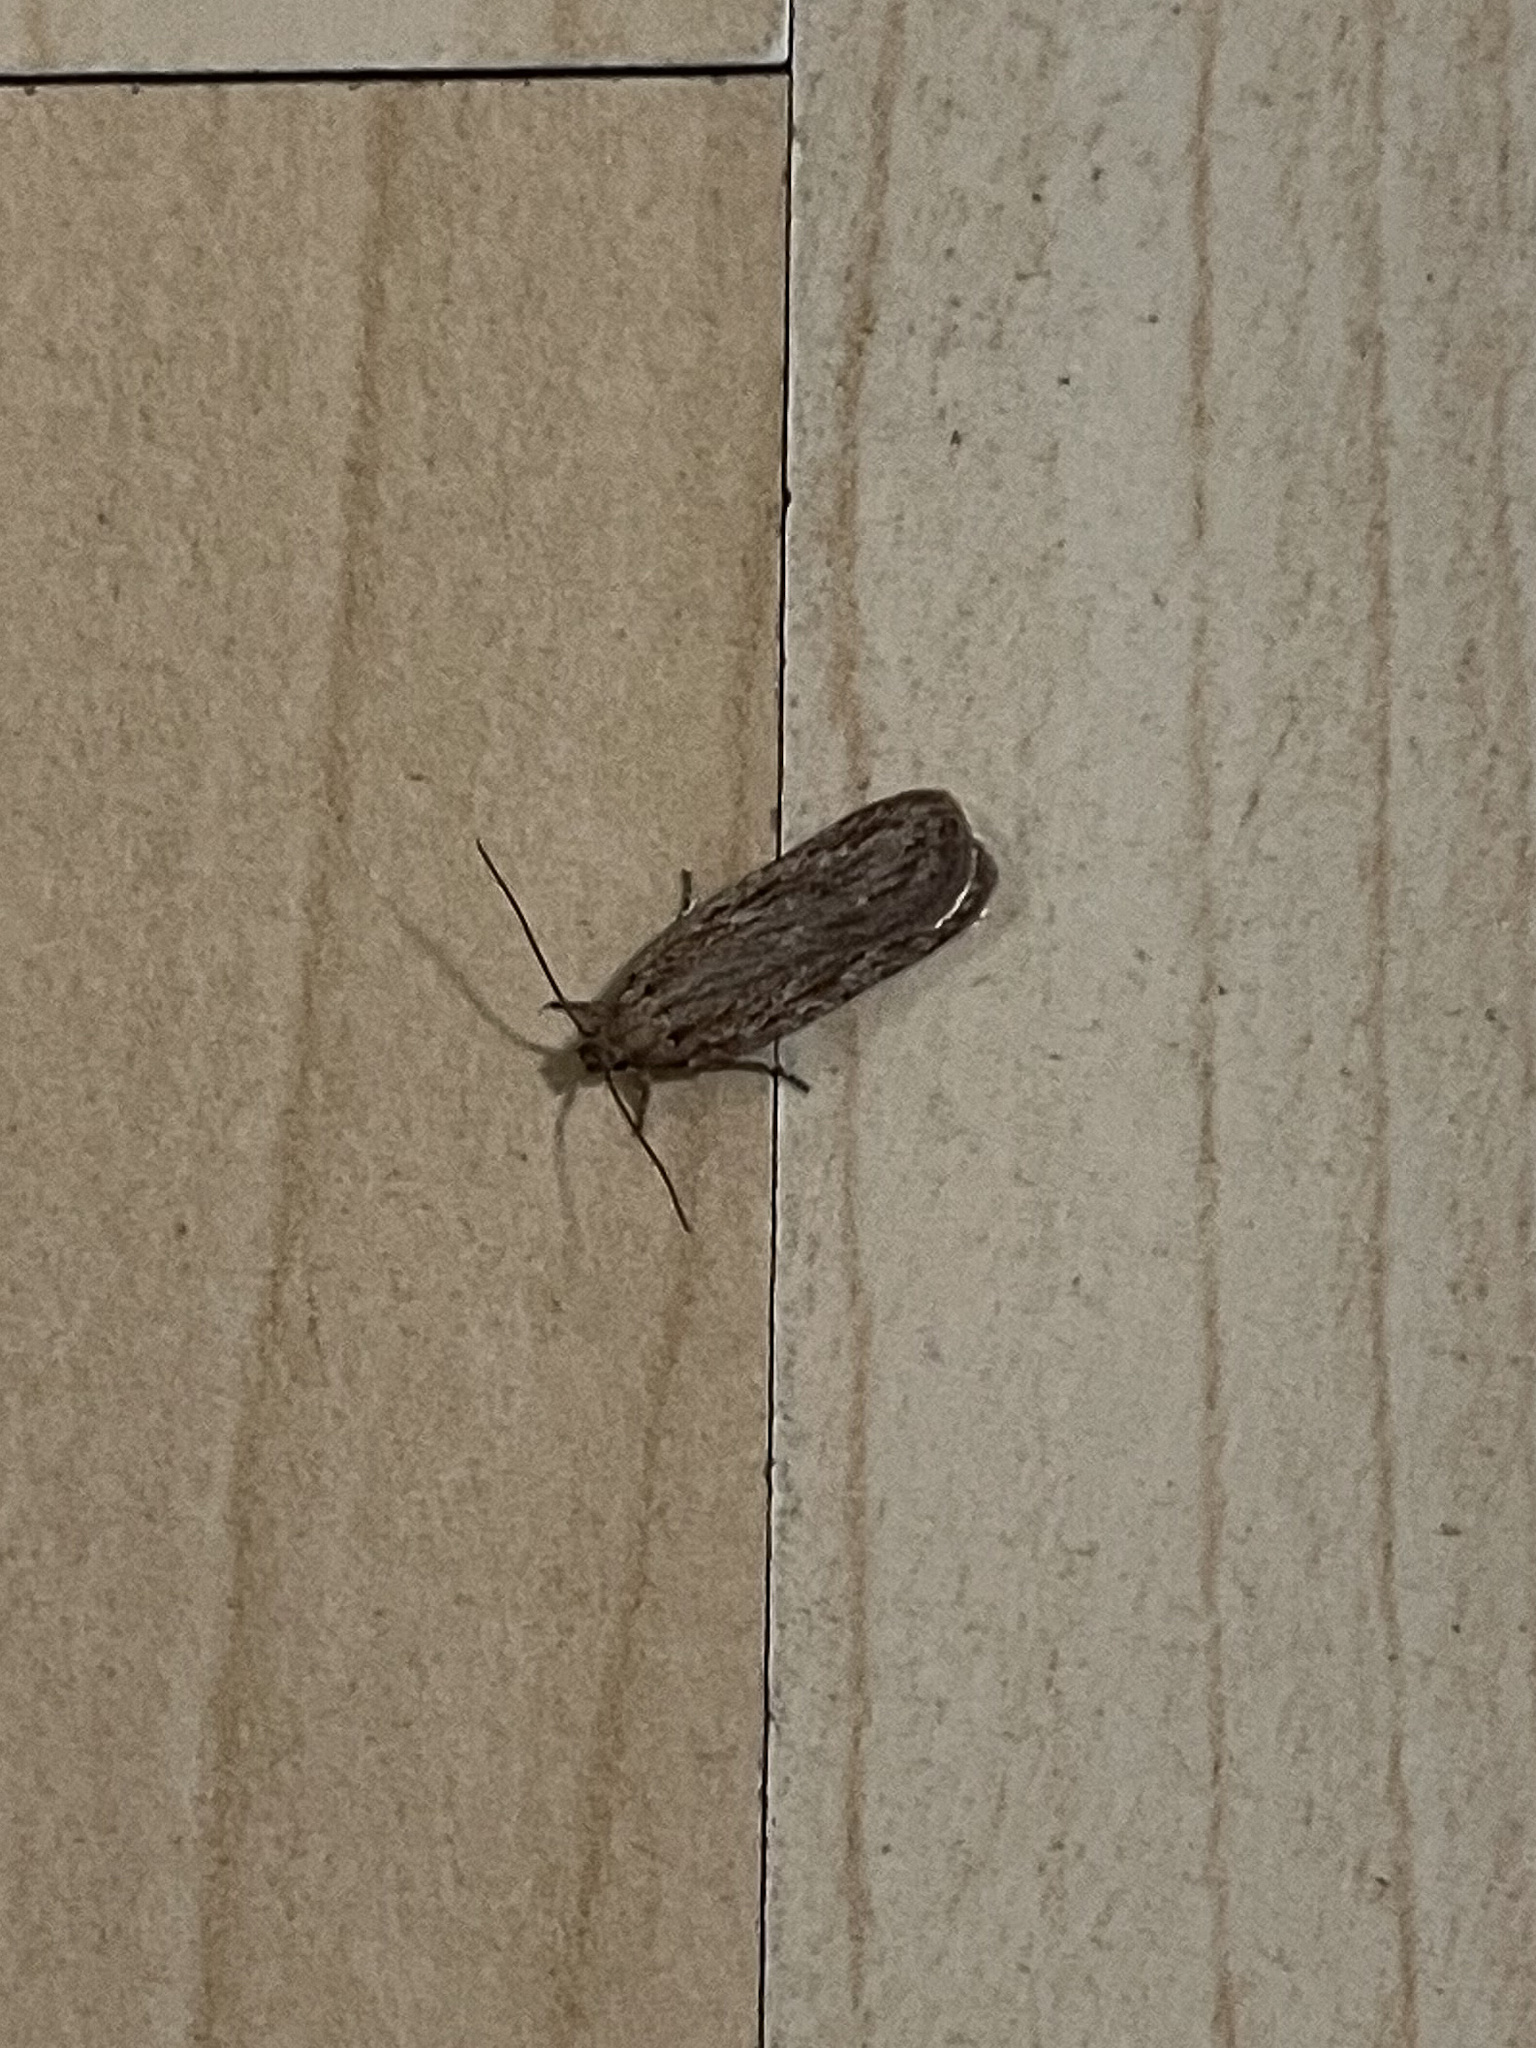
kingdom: Animalia
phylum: Arthropoda
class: Insecta
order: Lepidoptera
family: Depressariidae
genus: Depressaria
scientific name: Depressaria apiella
